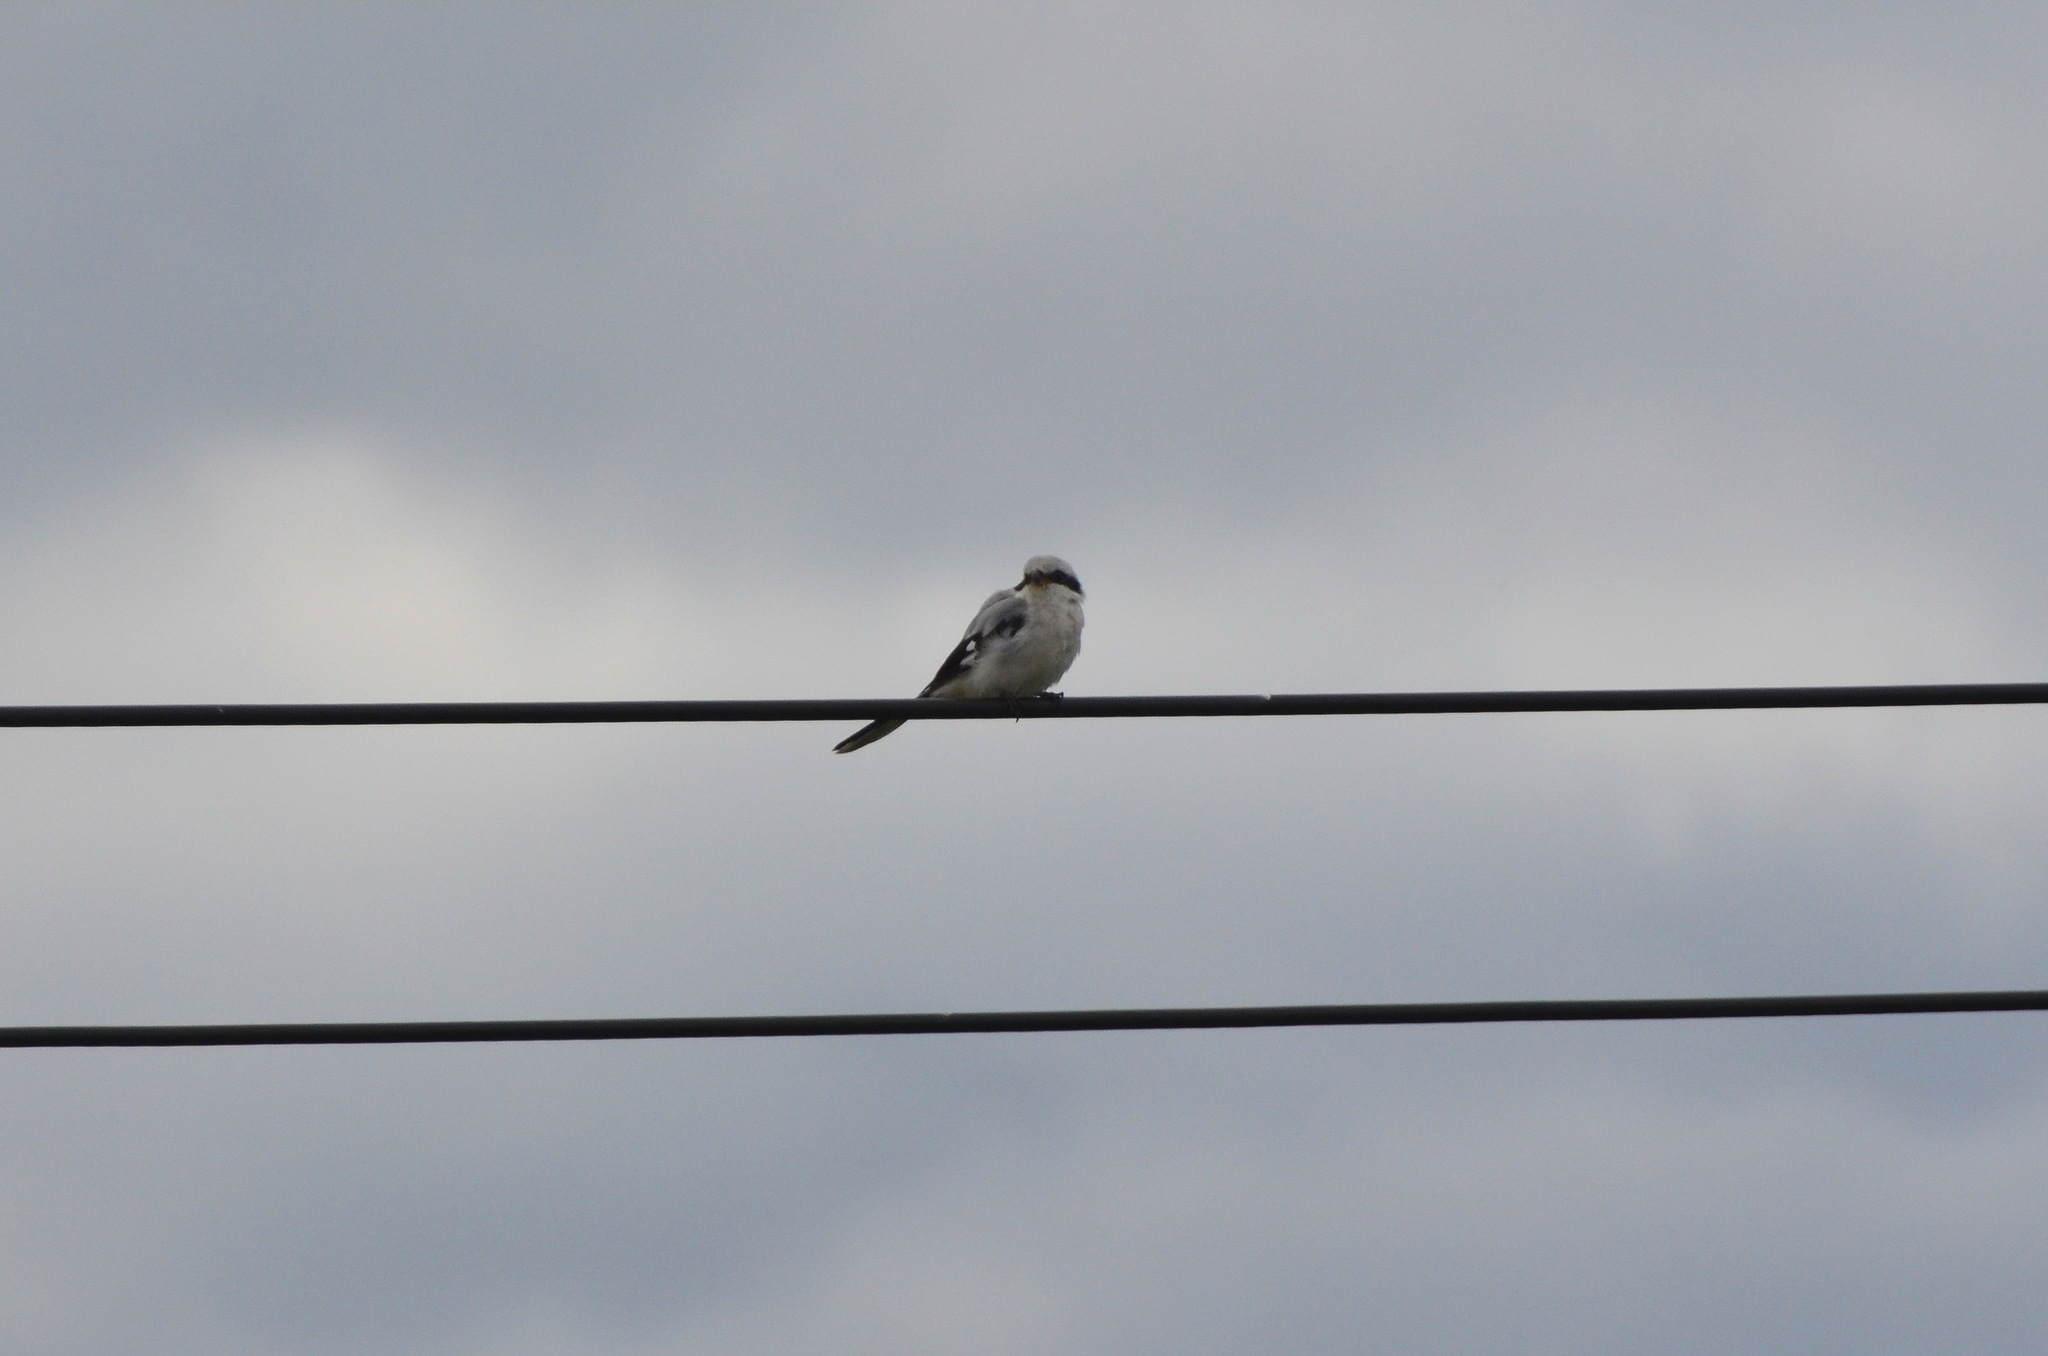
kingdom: Animalia
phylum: Chordata
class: Aves
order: Passeriformes
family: Laniidae
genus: Lanius
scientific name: Lanius excubitor
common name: Great grey shrike
